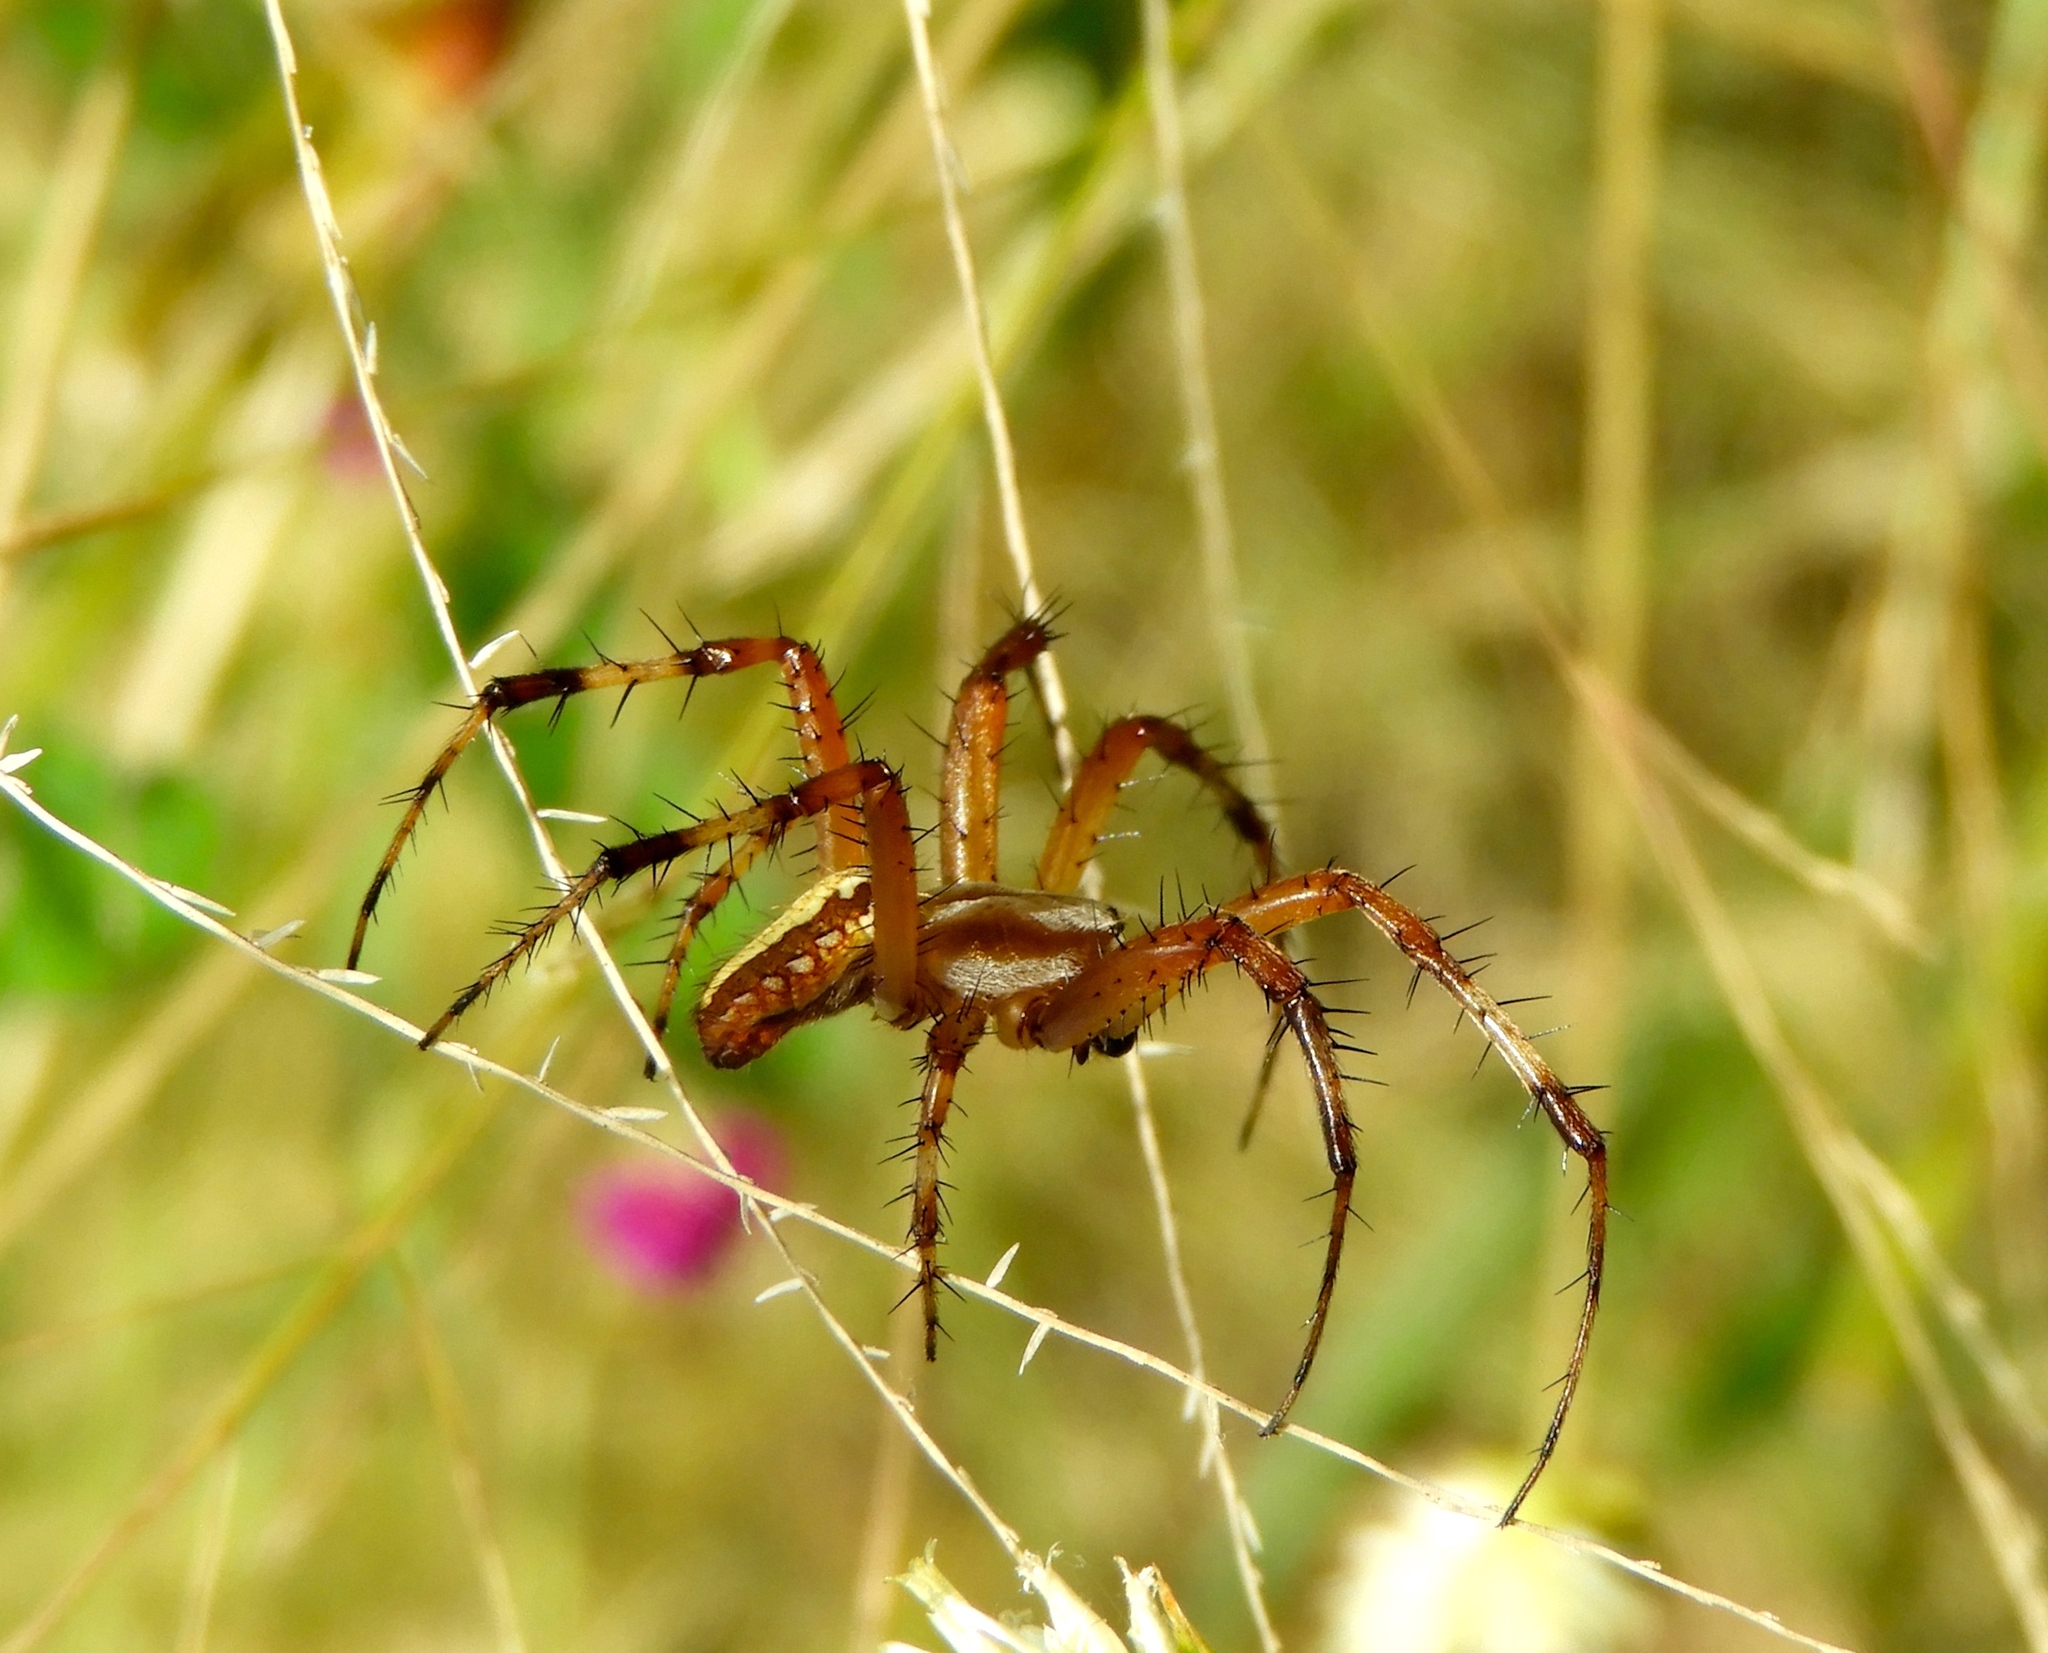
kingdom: Animalia
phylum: Arthropoda
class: Arachnida
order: Araneae
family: Araneidae
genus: Neoscona
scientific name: Neoscona oaxacensis
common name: Orb weavers
